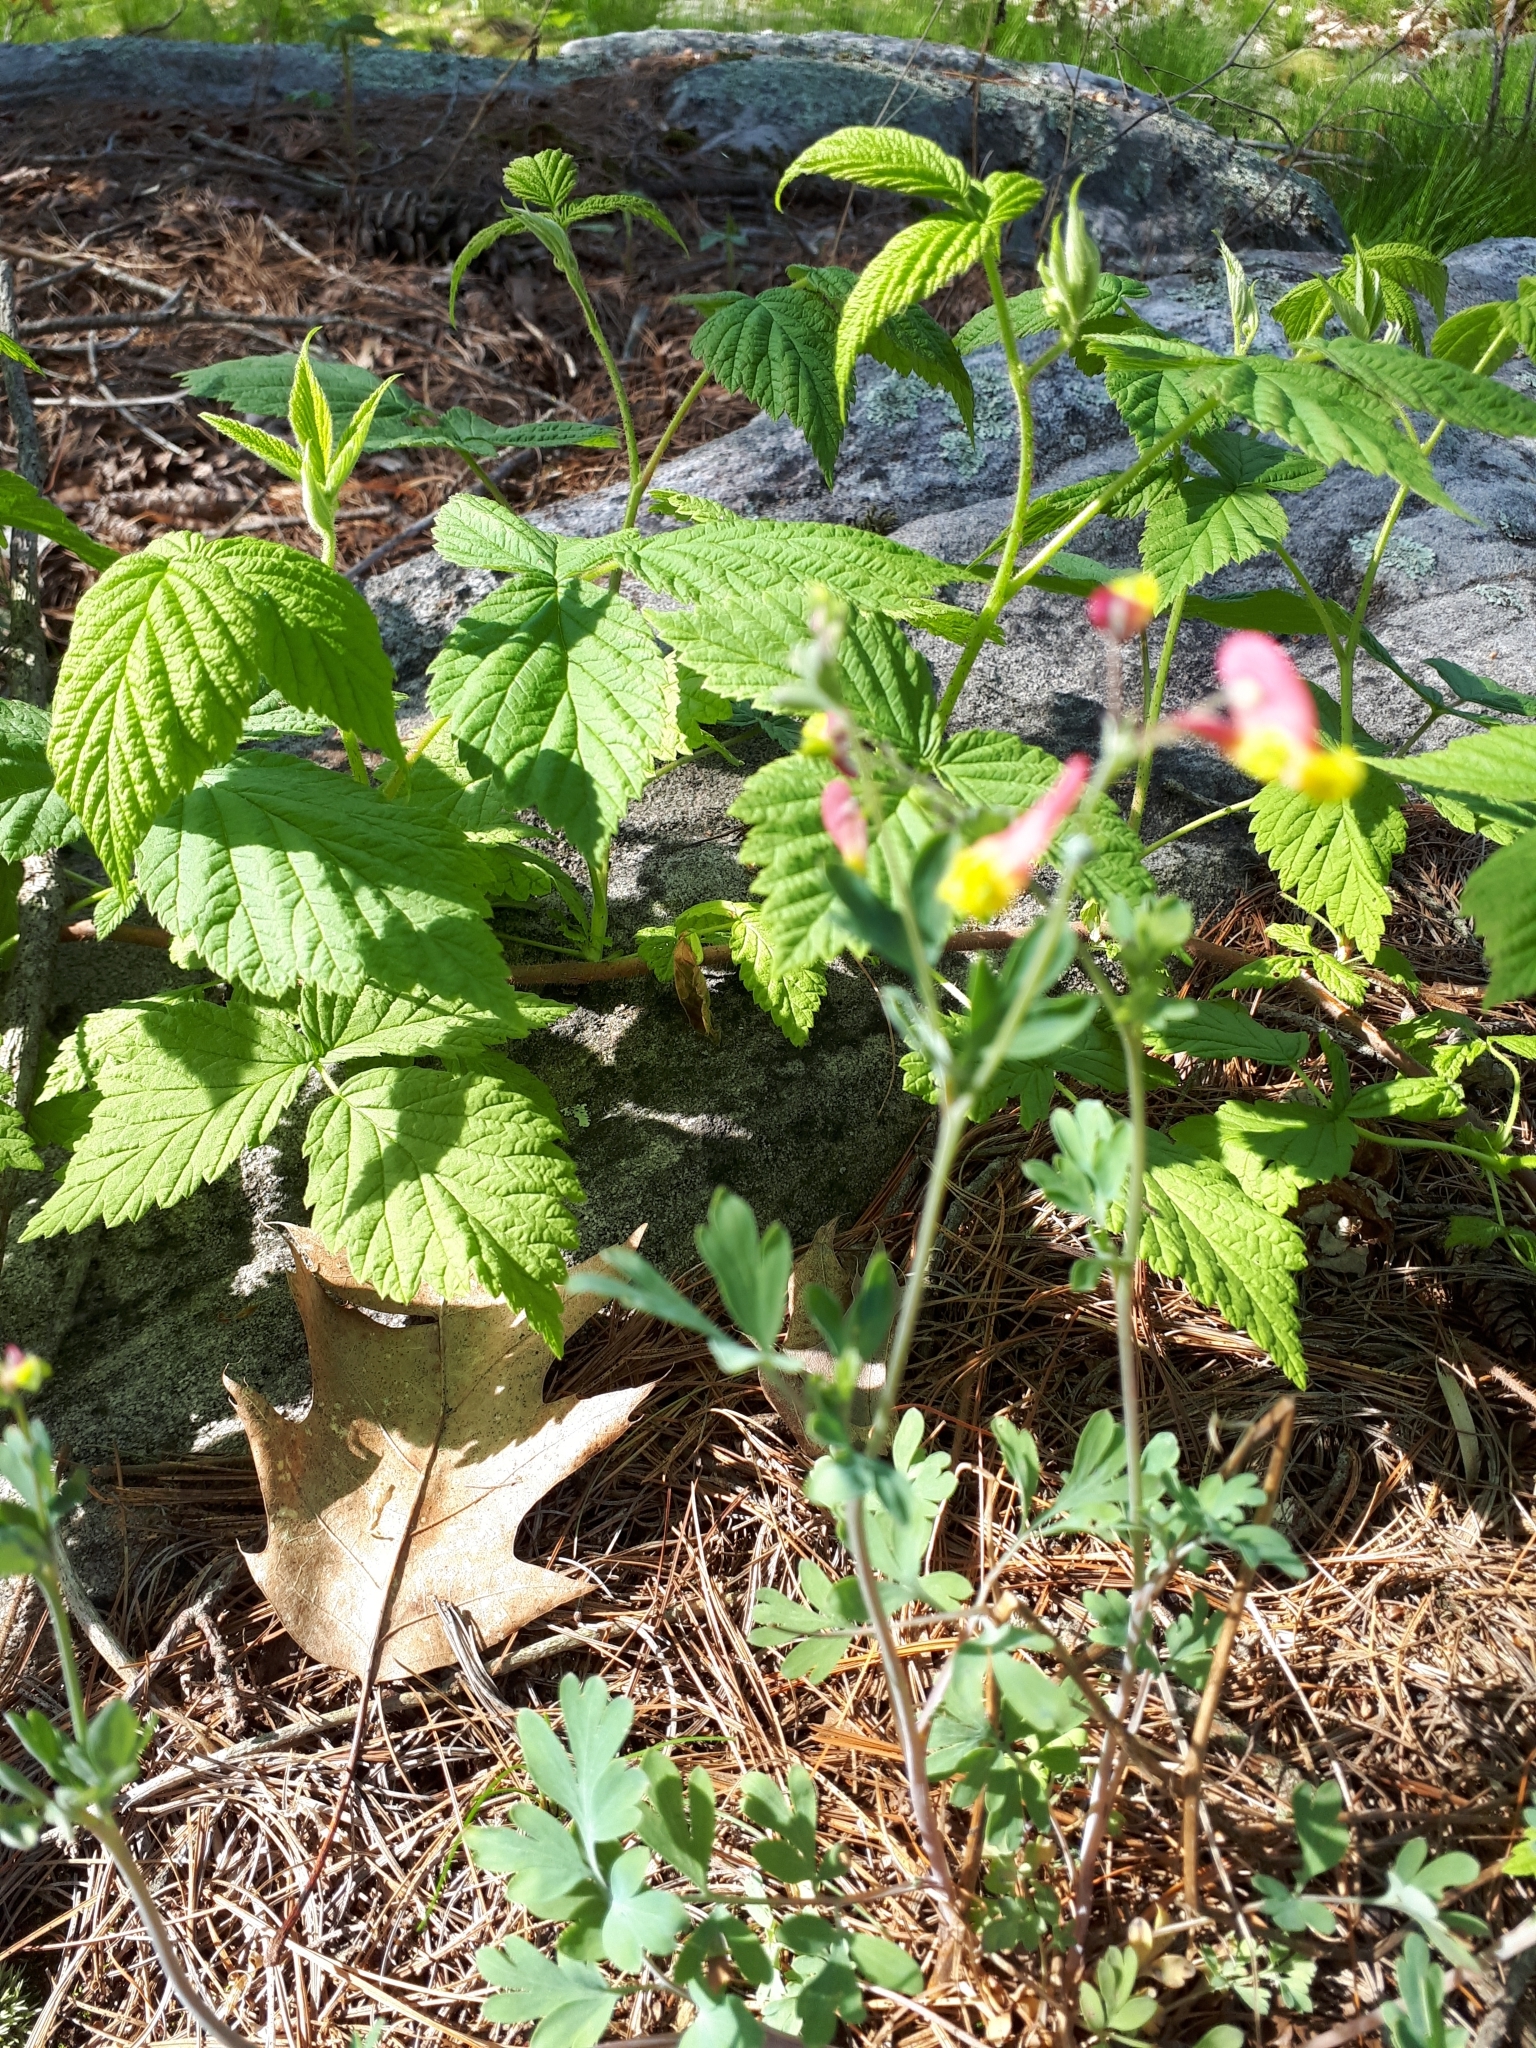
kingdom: Plantae
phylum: Tracheophyta
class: Magnoliopsida
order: Ranunculales
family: Papaveraceae
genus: Capnoides
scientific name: Capnoides sempervirens
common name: Rock harlequin
